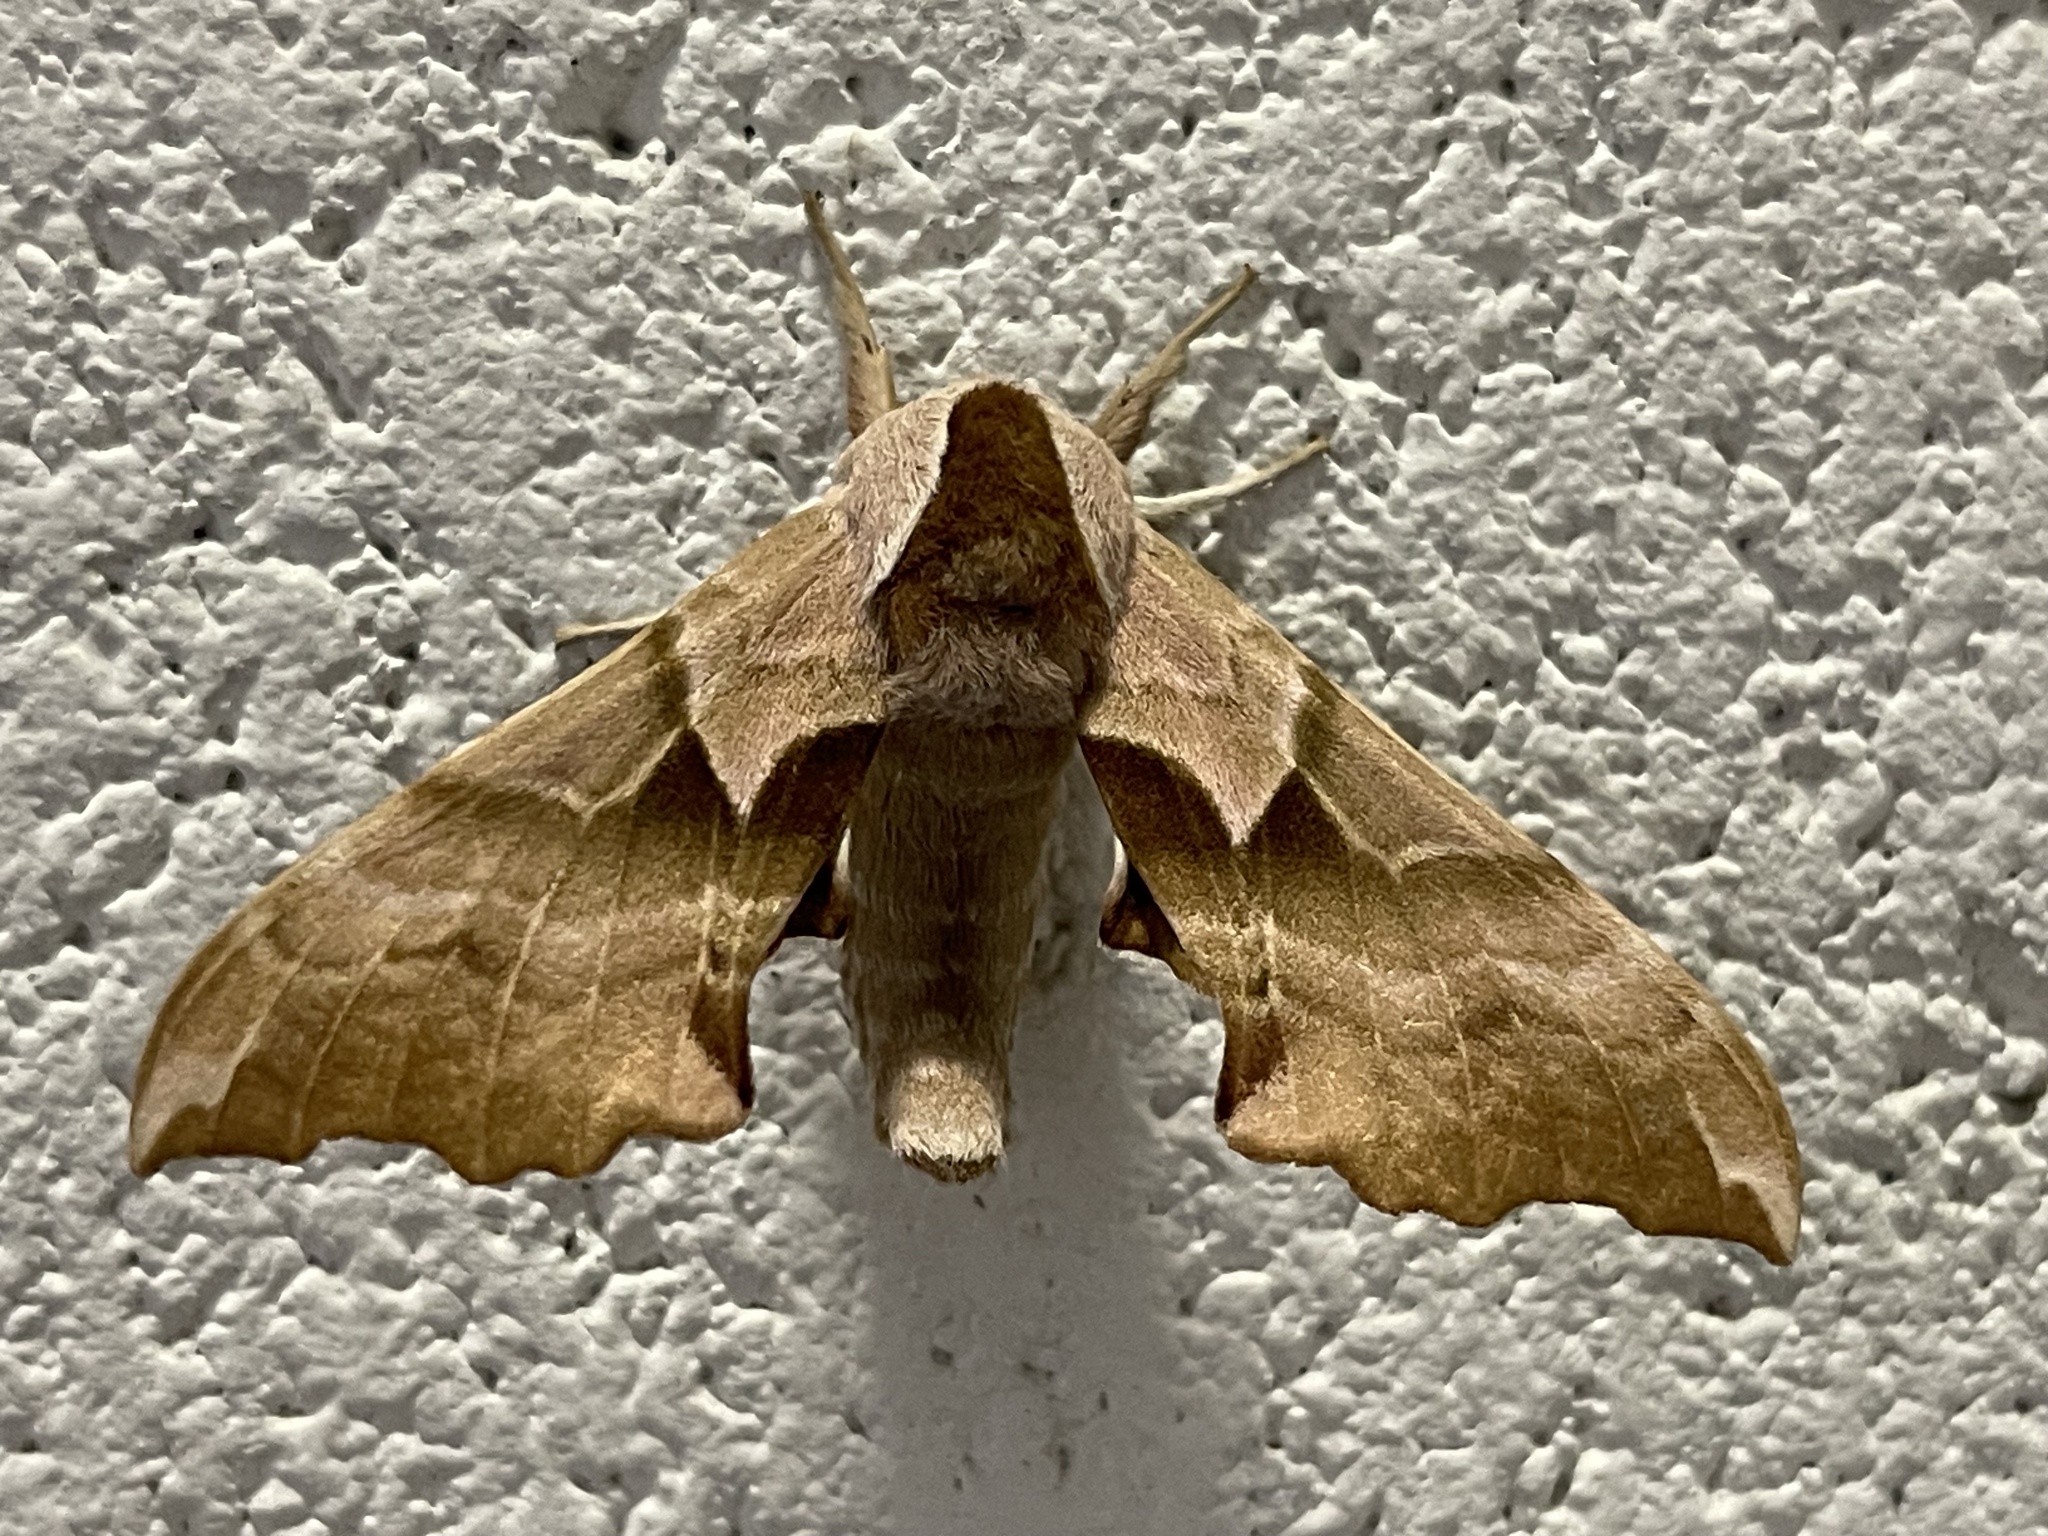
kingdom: Animalia
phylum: Arthropoda
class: Insecta
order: Lepidoptera
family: Sphingidae
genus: Smerinthus
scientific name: Smerinthus cerisyi
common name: Cerisy's sphinx moth
